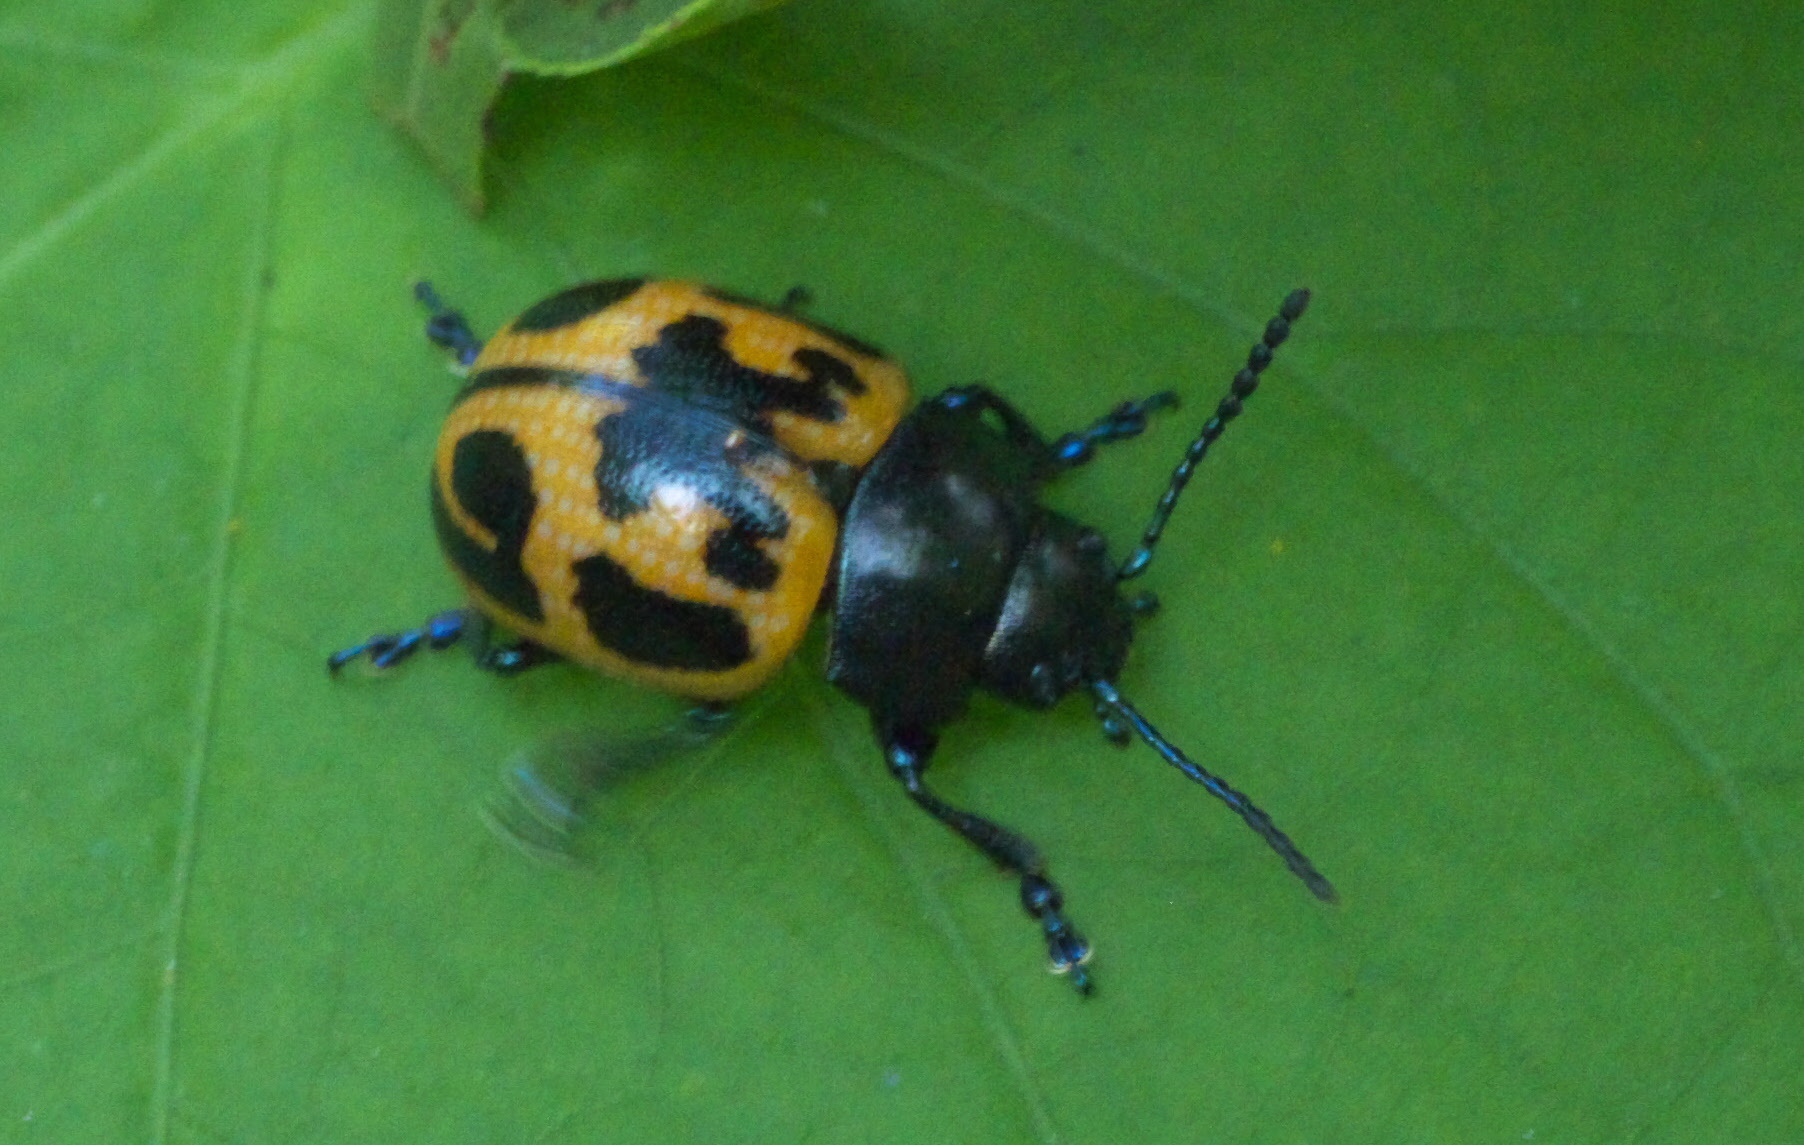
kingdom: Animalia
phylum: Arthropoda
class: Insecta
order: Coleoptera
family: Chrysomelidae
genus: Labidomera
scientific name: Labidomera clivicollis
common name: Swamp milkweed leaf beetle
